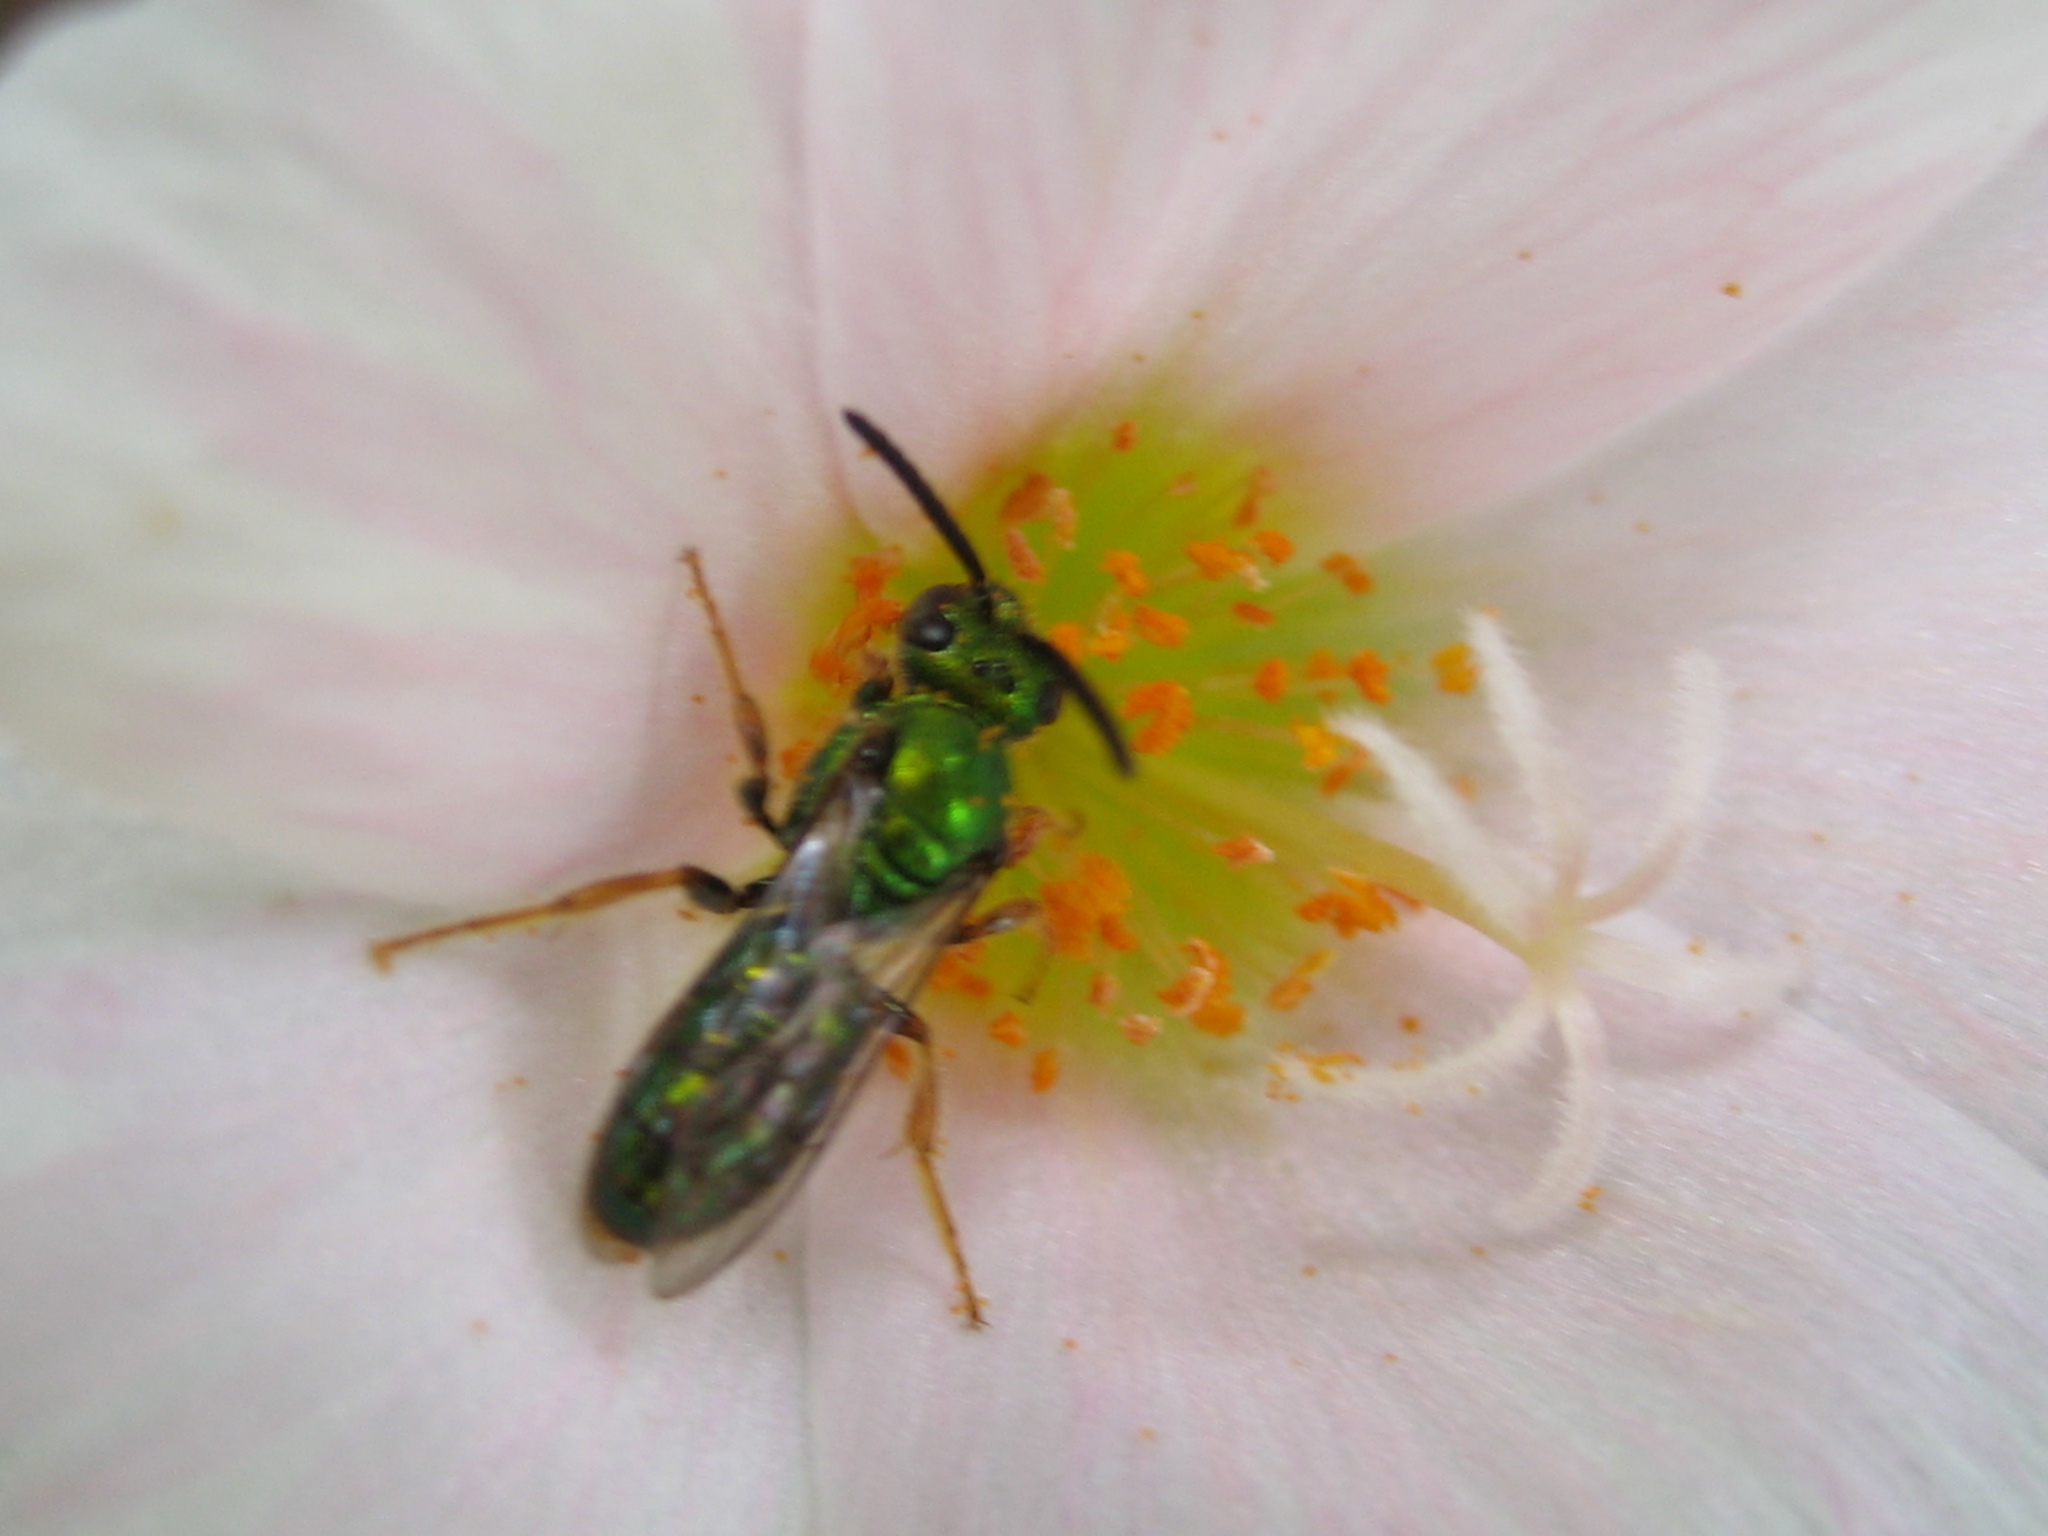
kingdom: Animalia
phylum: Arthropoda
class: Insecta
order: Hymenoptera
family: Halictidae
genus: Augochlora
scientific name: Augochlora pura
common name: Pure green sweat bee
